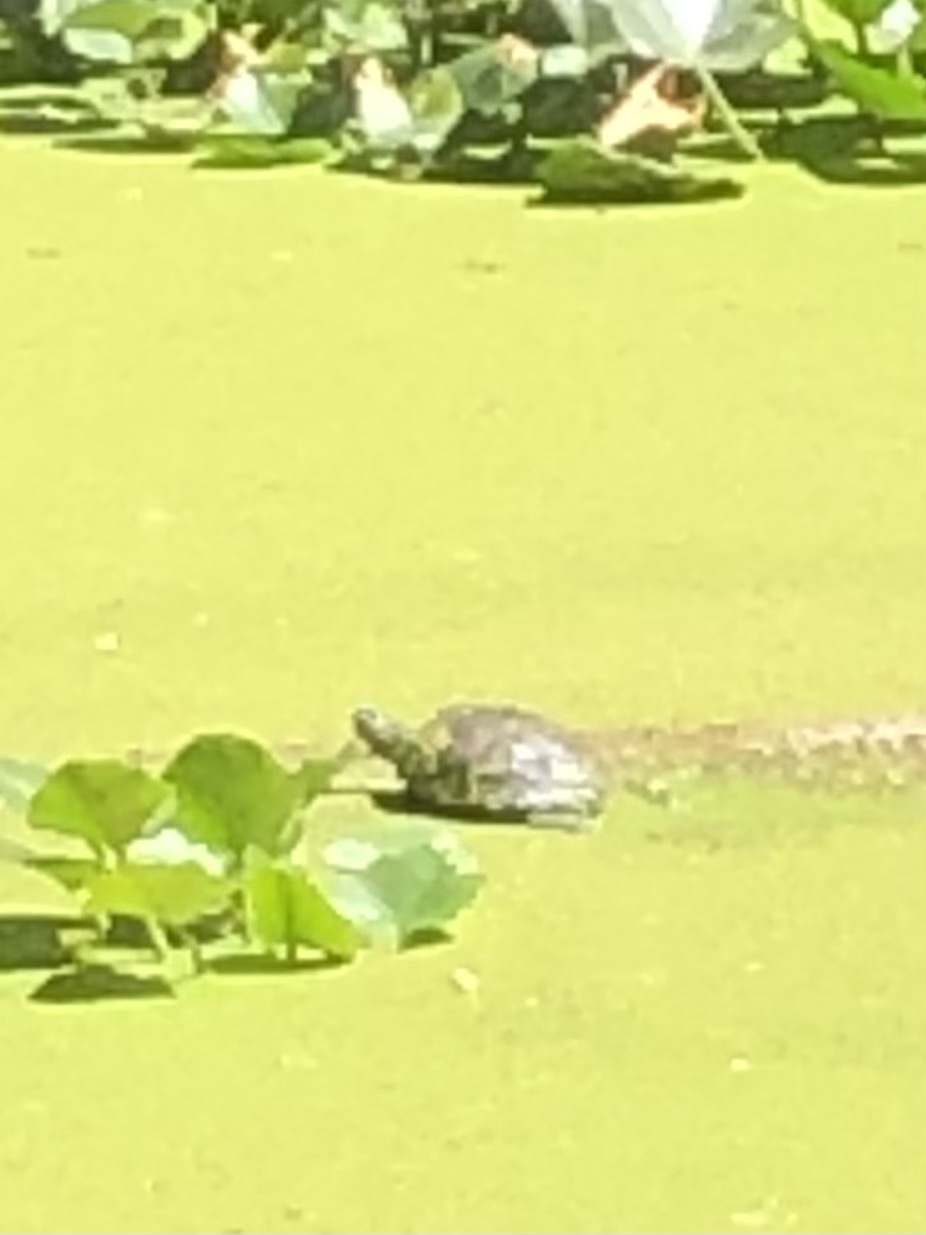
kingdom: Animalia
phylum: Chordata
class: Testudines
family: Emydidae
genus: Trachemys
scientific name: Trachemys scripta
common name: Slider
